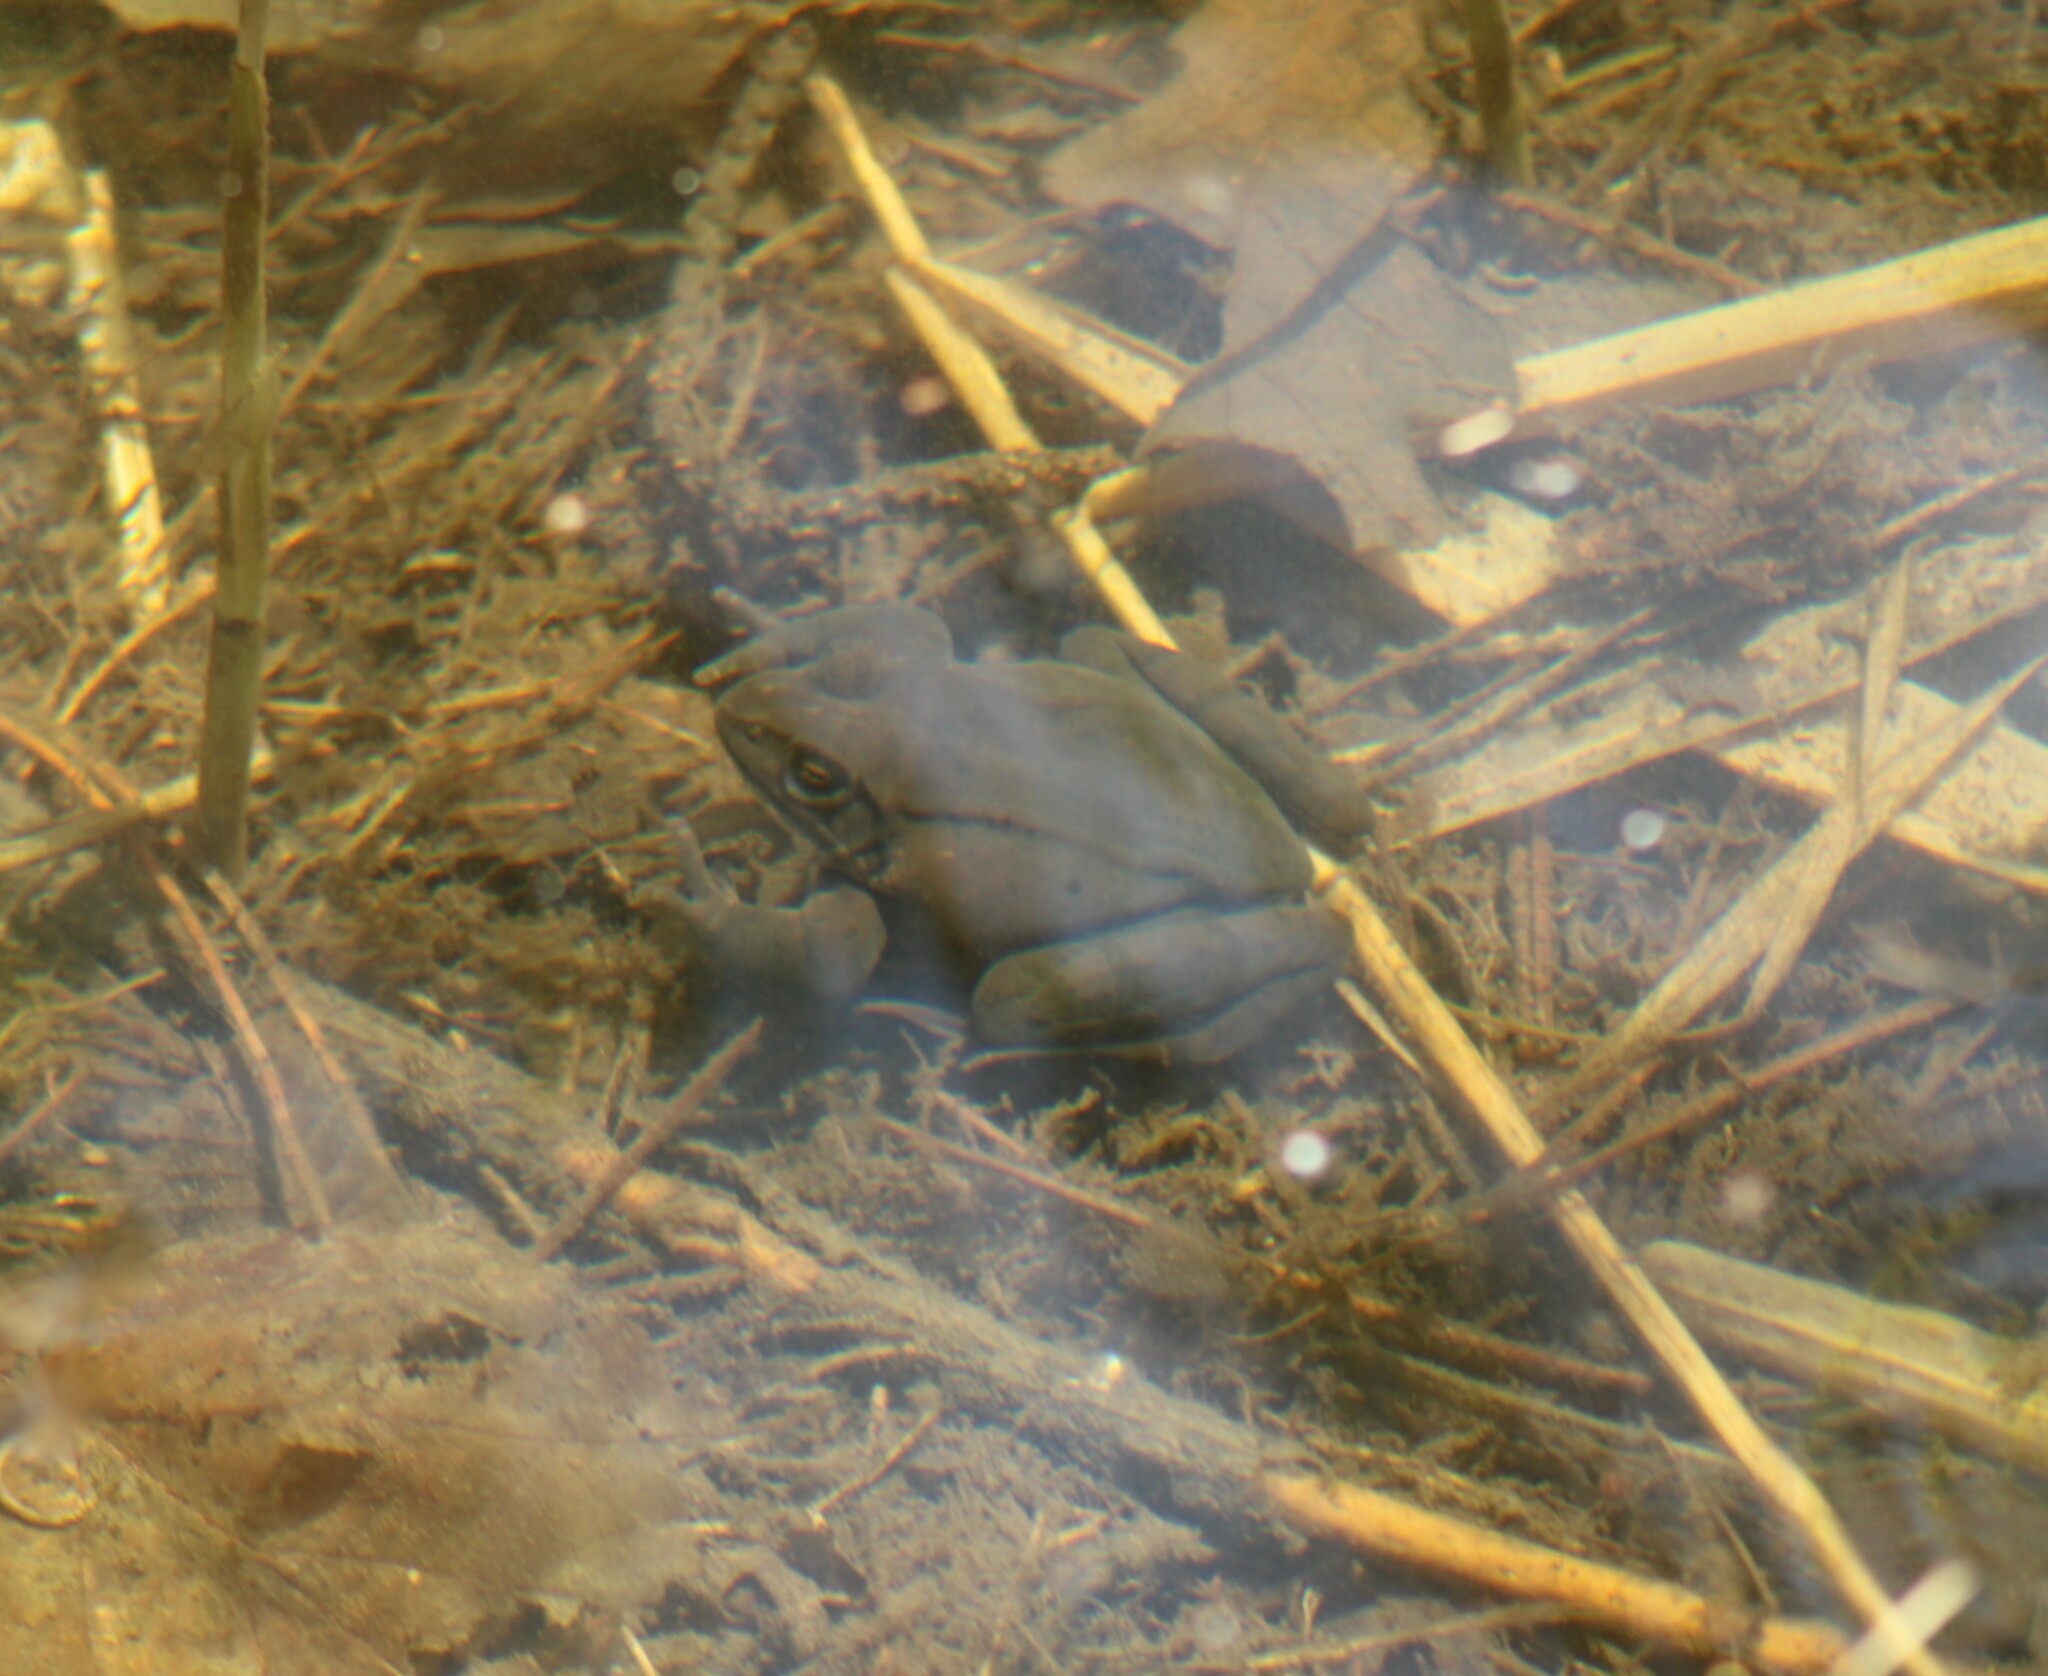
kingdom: Animalia
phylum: Chordata
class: Amphibia
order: Anura
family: Ranidae
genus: Rana
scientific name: Rana dalmatina
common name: Agile frog
